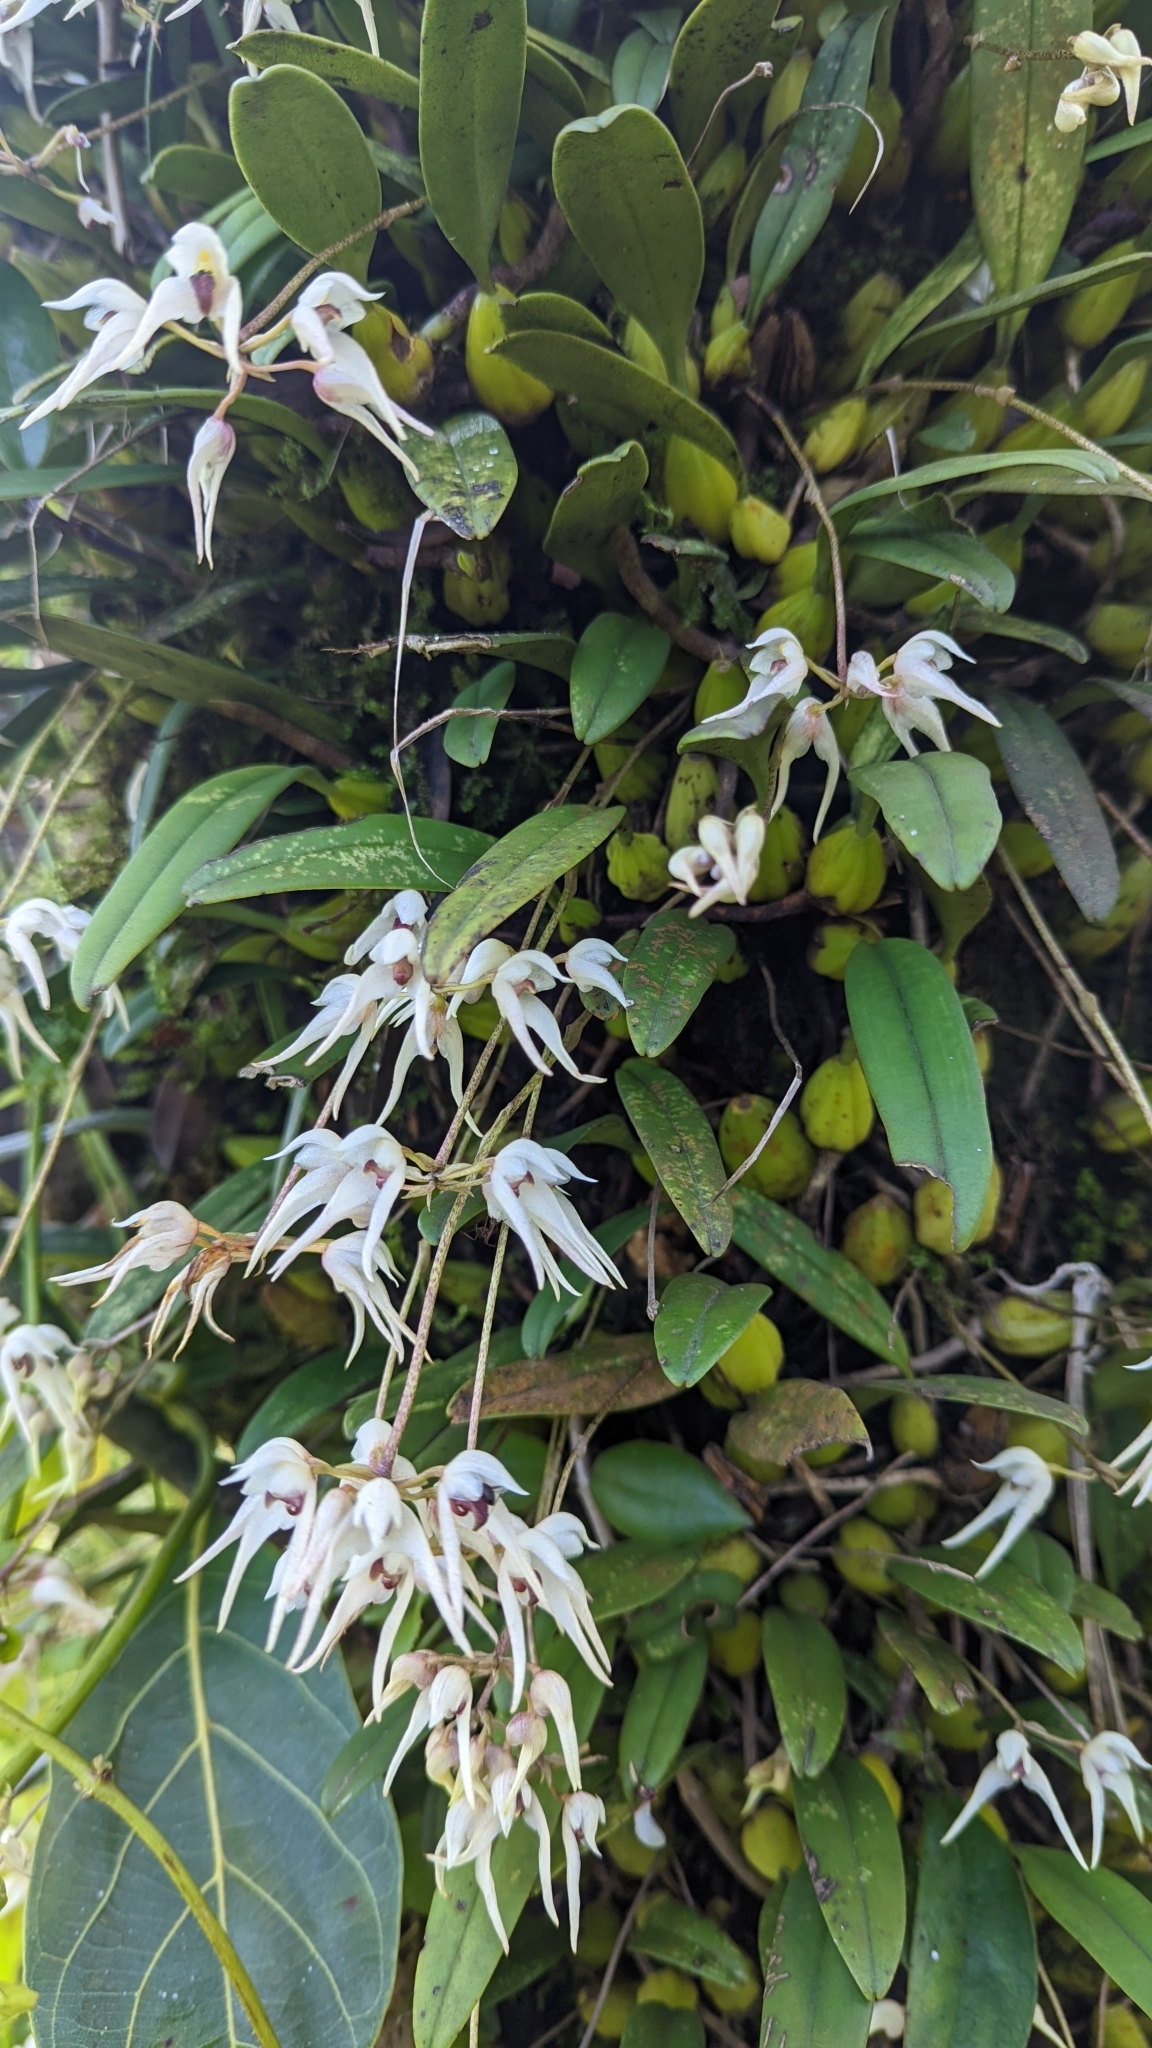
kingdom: Plantae
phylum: Tracheophyta
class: Liliopsida
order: Asparagales
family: Orchidaceae
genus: Bulbophyllum
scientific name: Bulbophyllum mysorense
